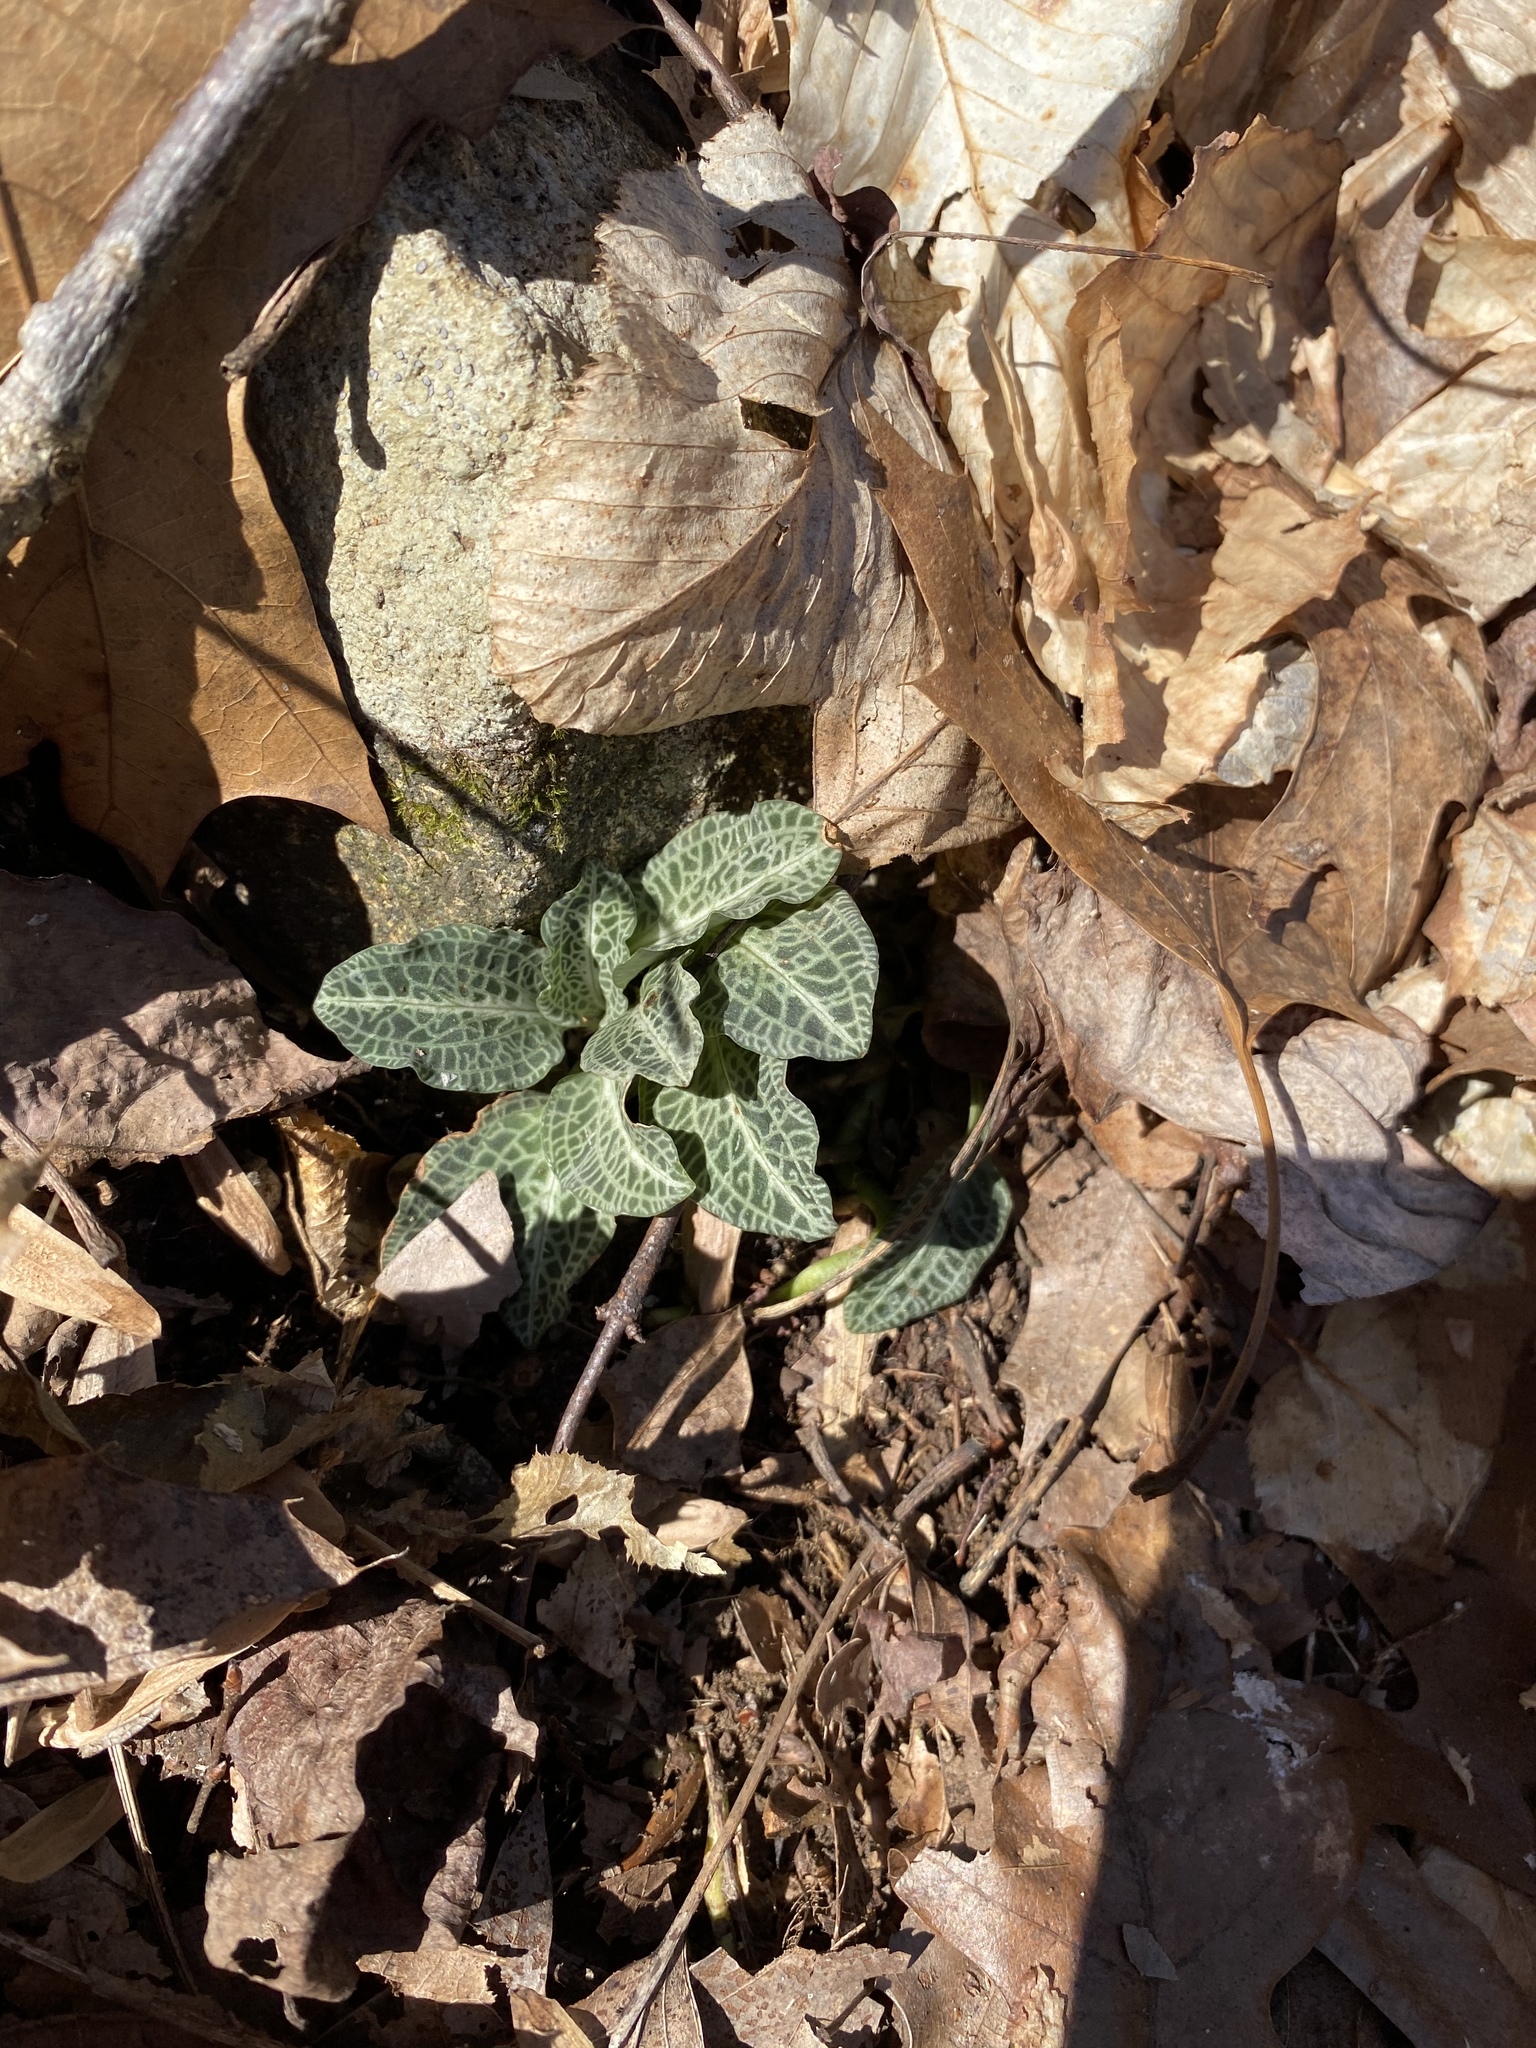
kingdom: Plantae
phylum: Tracheophyta
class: Liliopsida
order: Asparagales
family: Orchidaceae
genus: Goodyera
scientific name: Goodyera pubescens
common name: Downy rattlesnake-plantain
